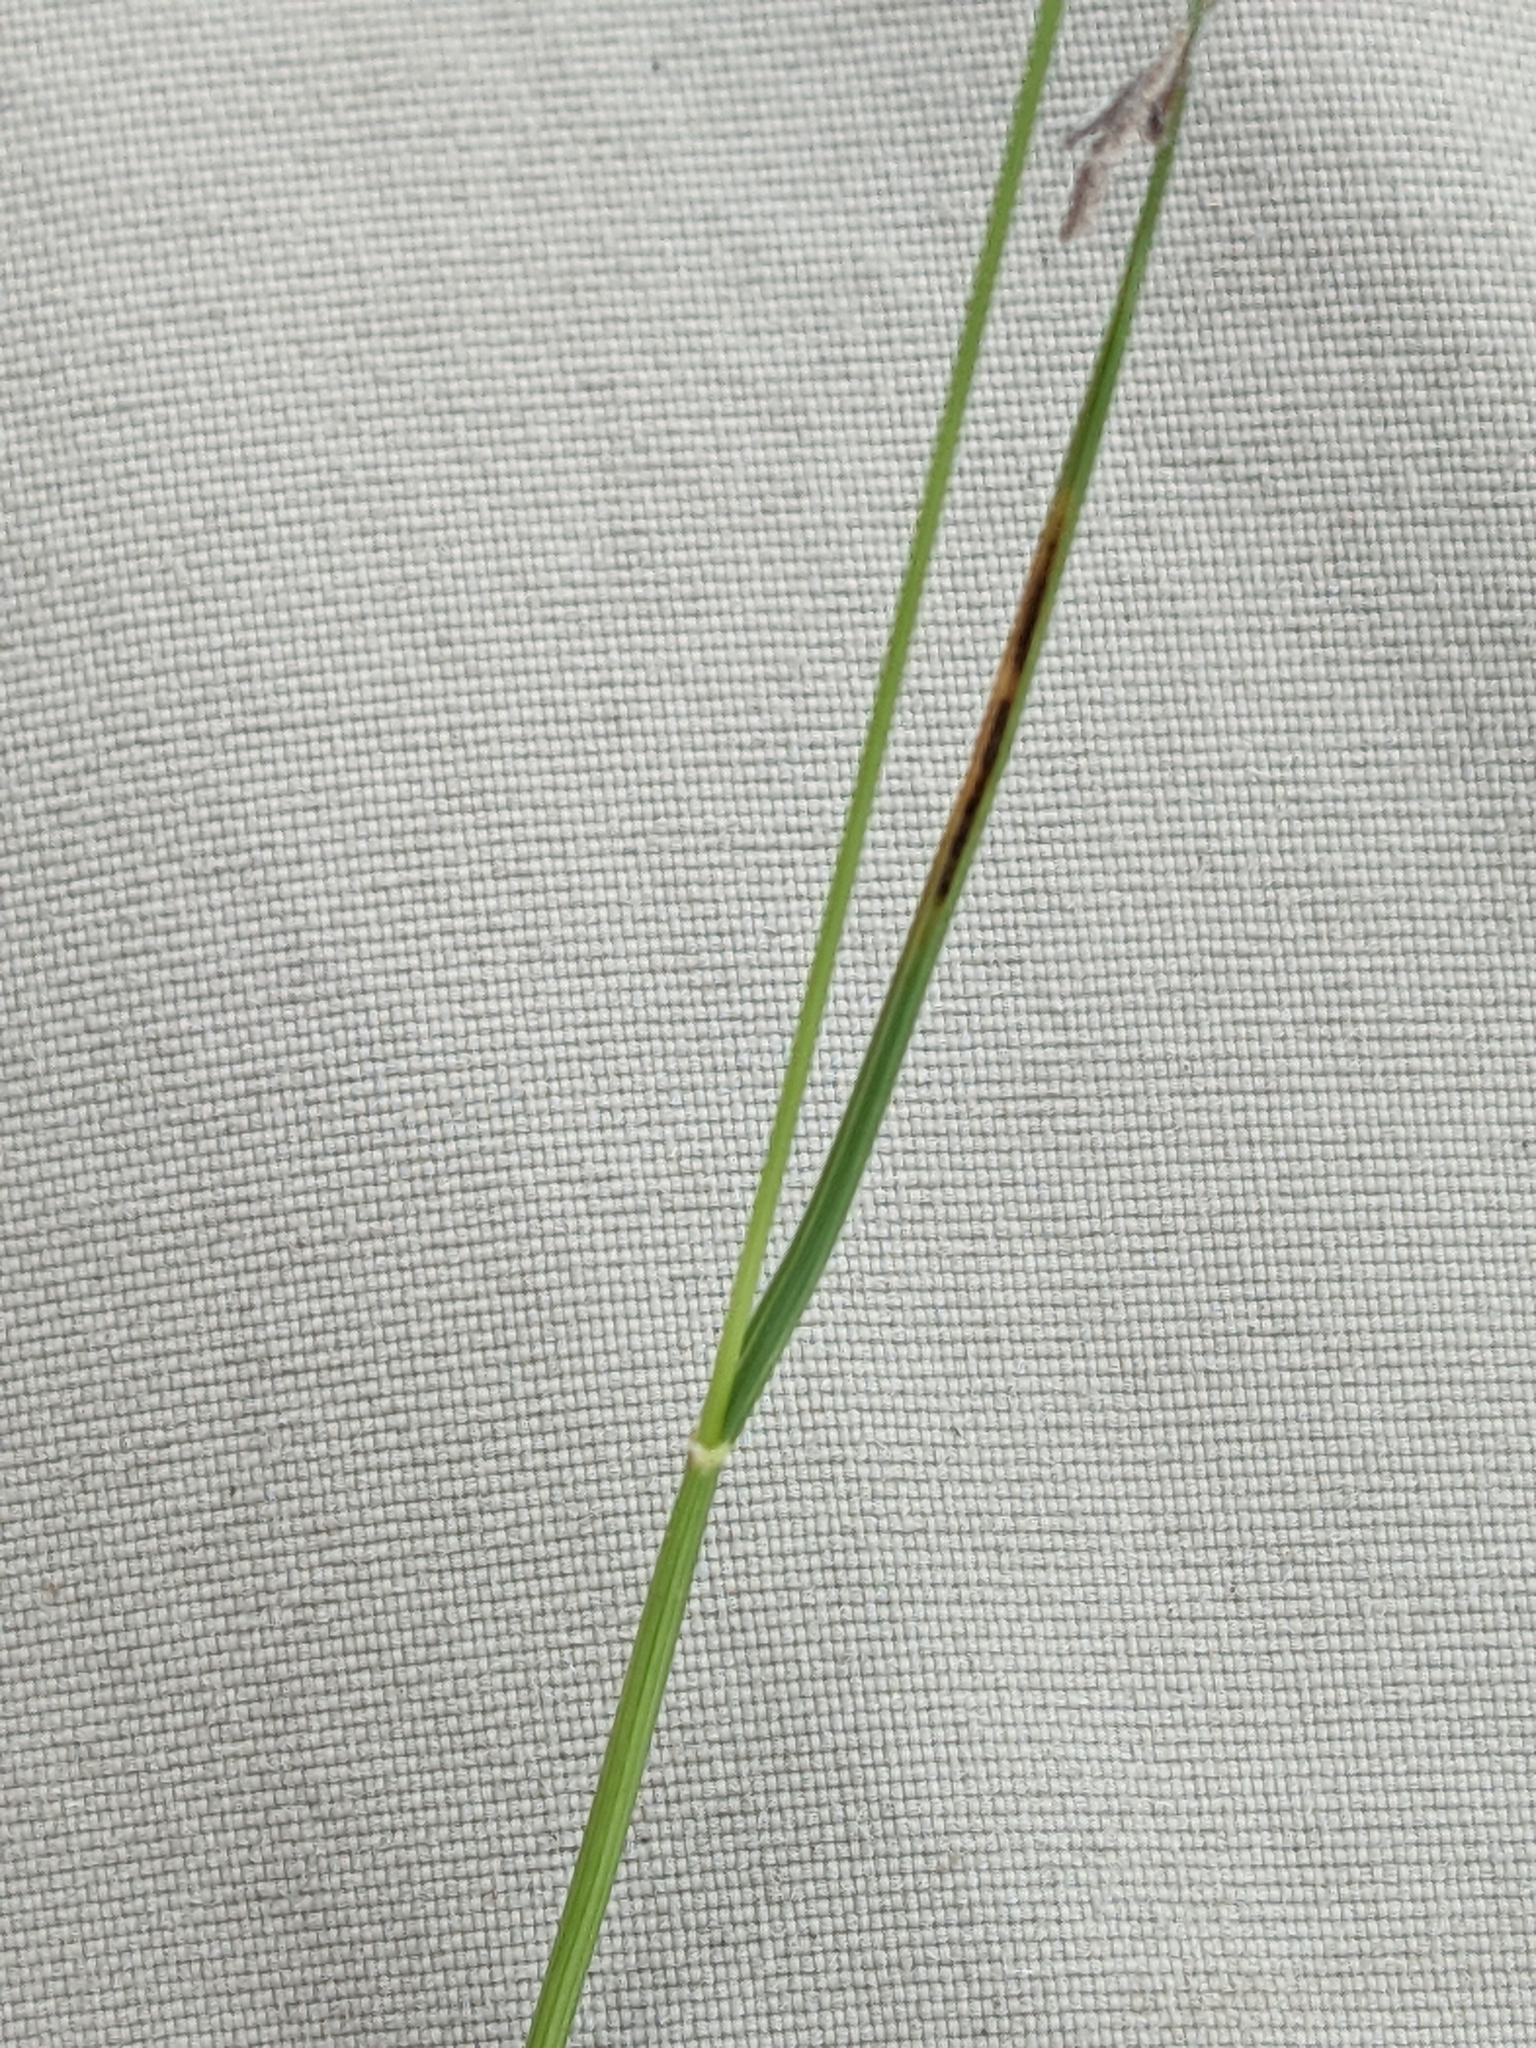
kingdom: Plantae
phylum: Tracheophyta
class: Liliopsida
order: Poales
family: Poaceae
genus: Bouteloua
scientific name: Bouteloua hirsuta
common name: Hairy grama
